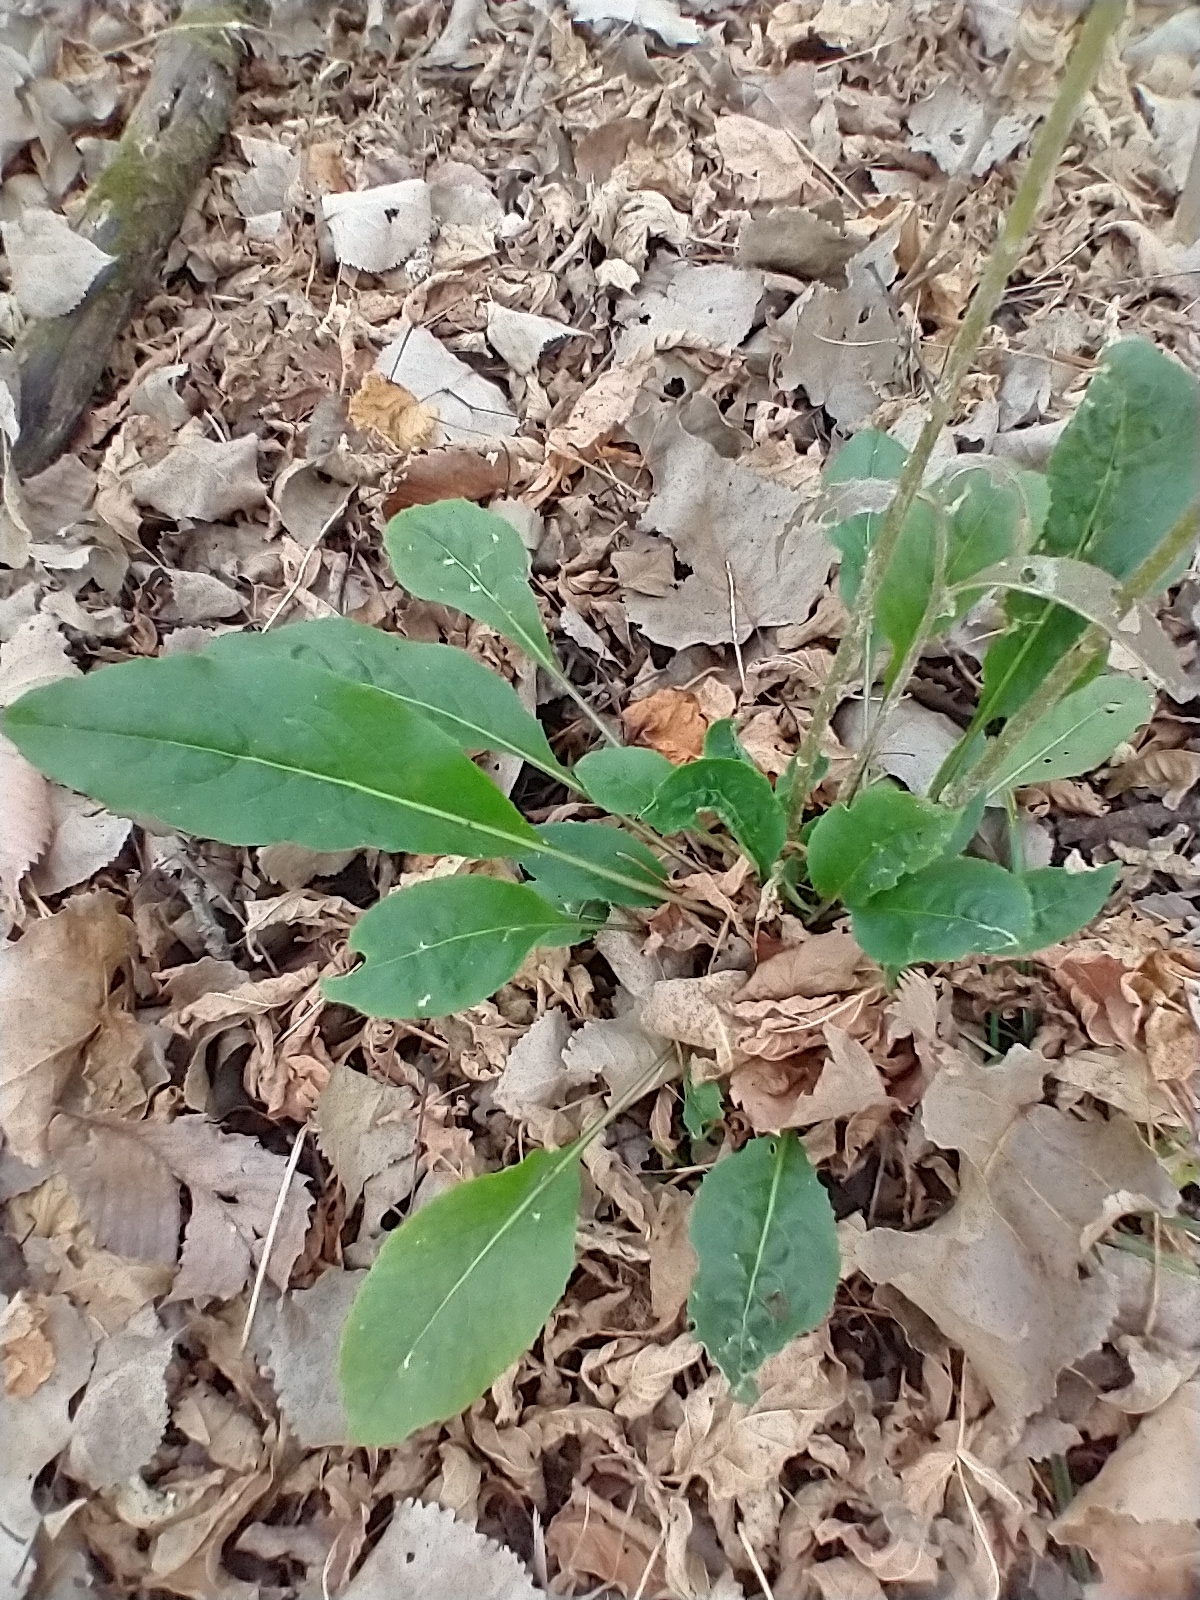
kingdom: Plantae
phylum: Tracheophyta
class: Magnoliopsida
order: Brassicales
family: Brassicaceae
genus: Hesperis
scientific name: Hesperis matronalis
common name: Dame's-violet
